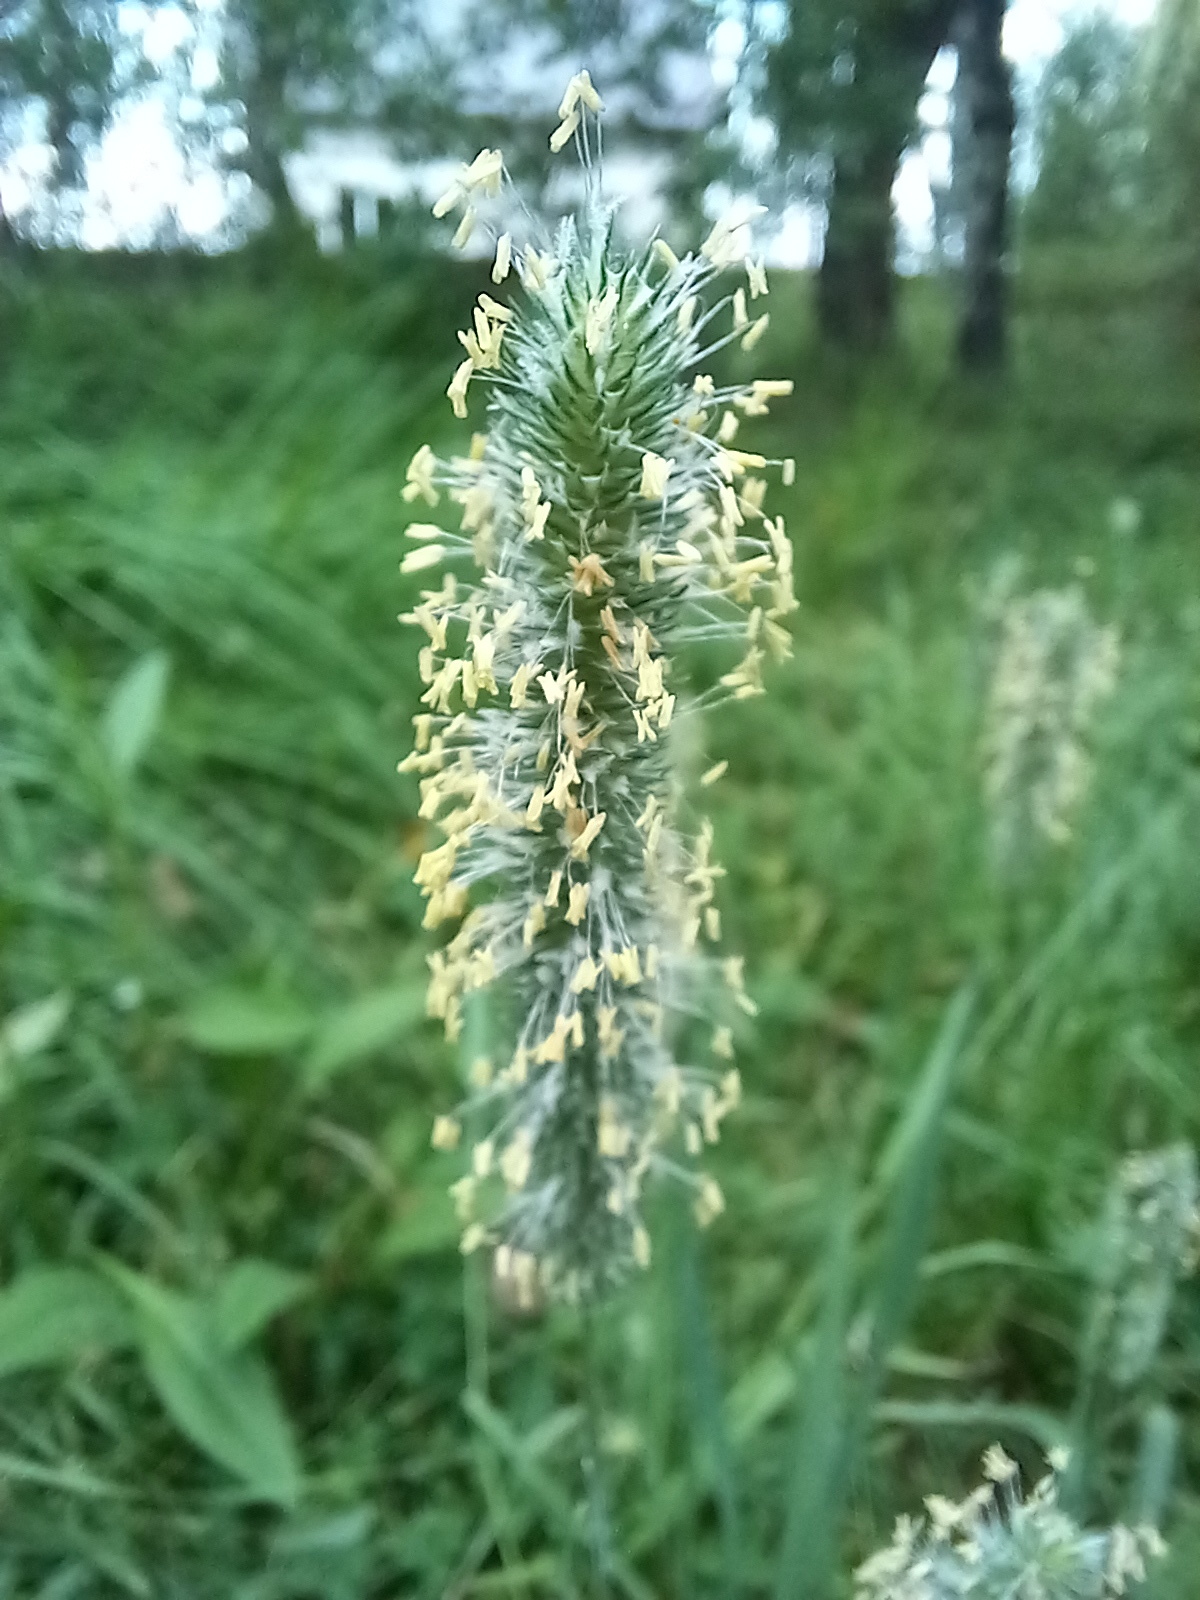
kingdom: Plantae
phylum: Tracheophyta
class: Liliopsida
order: Poales
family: Poaceae
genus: Phleum
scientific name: Phleum pratense
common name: Timothy grass
